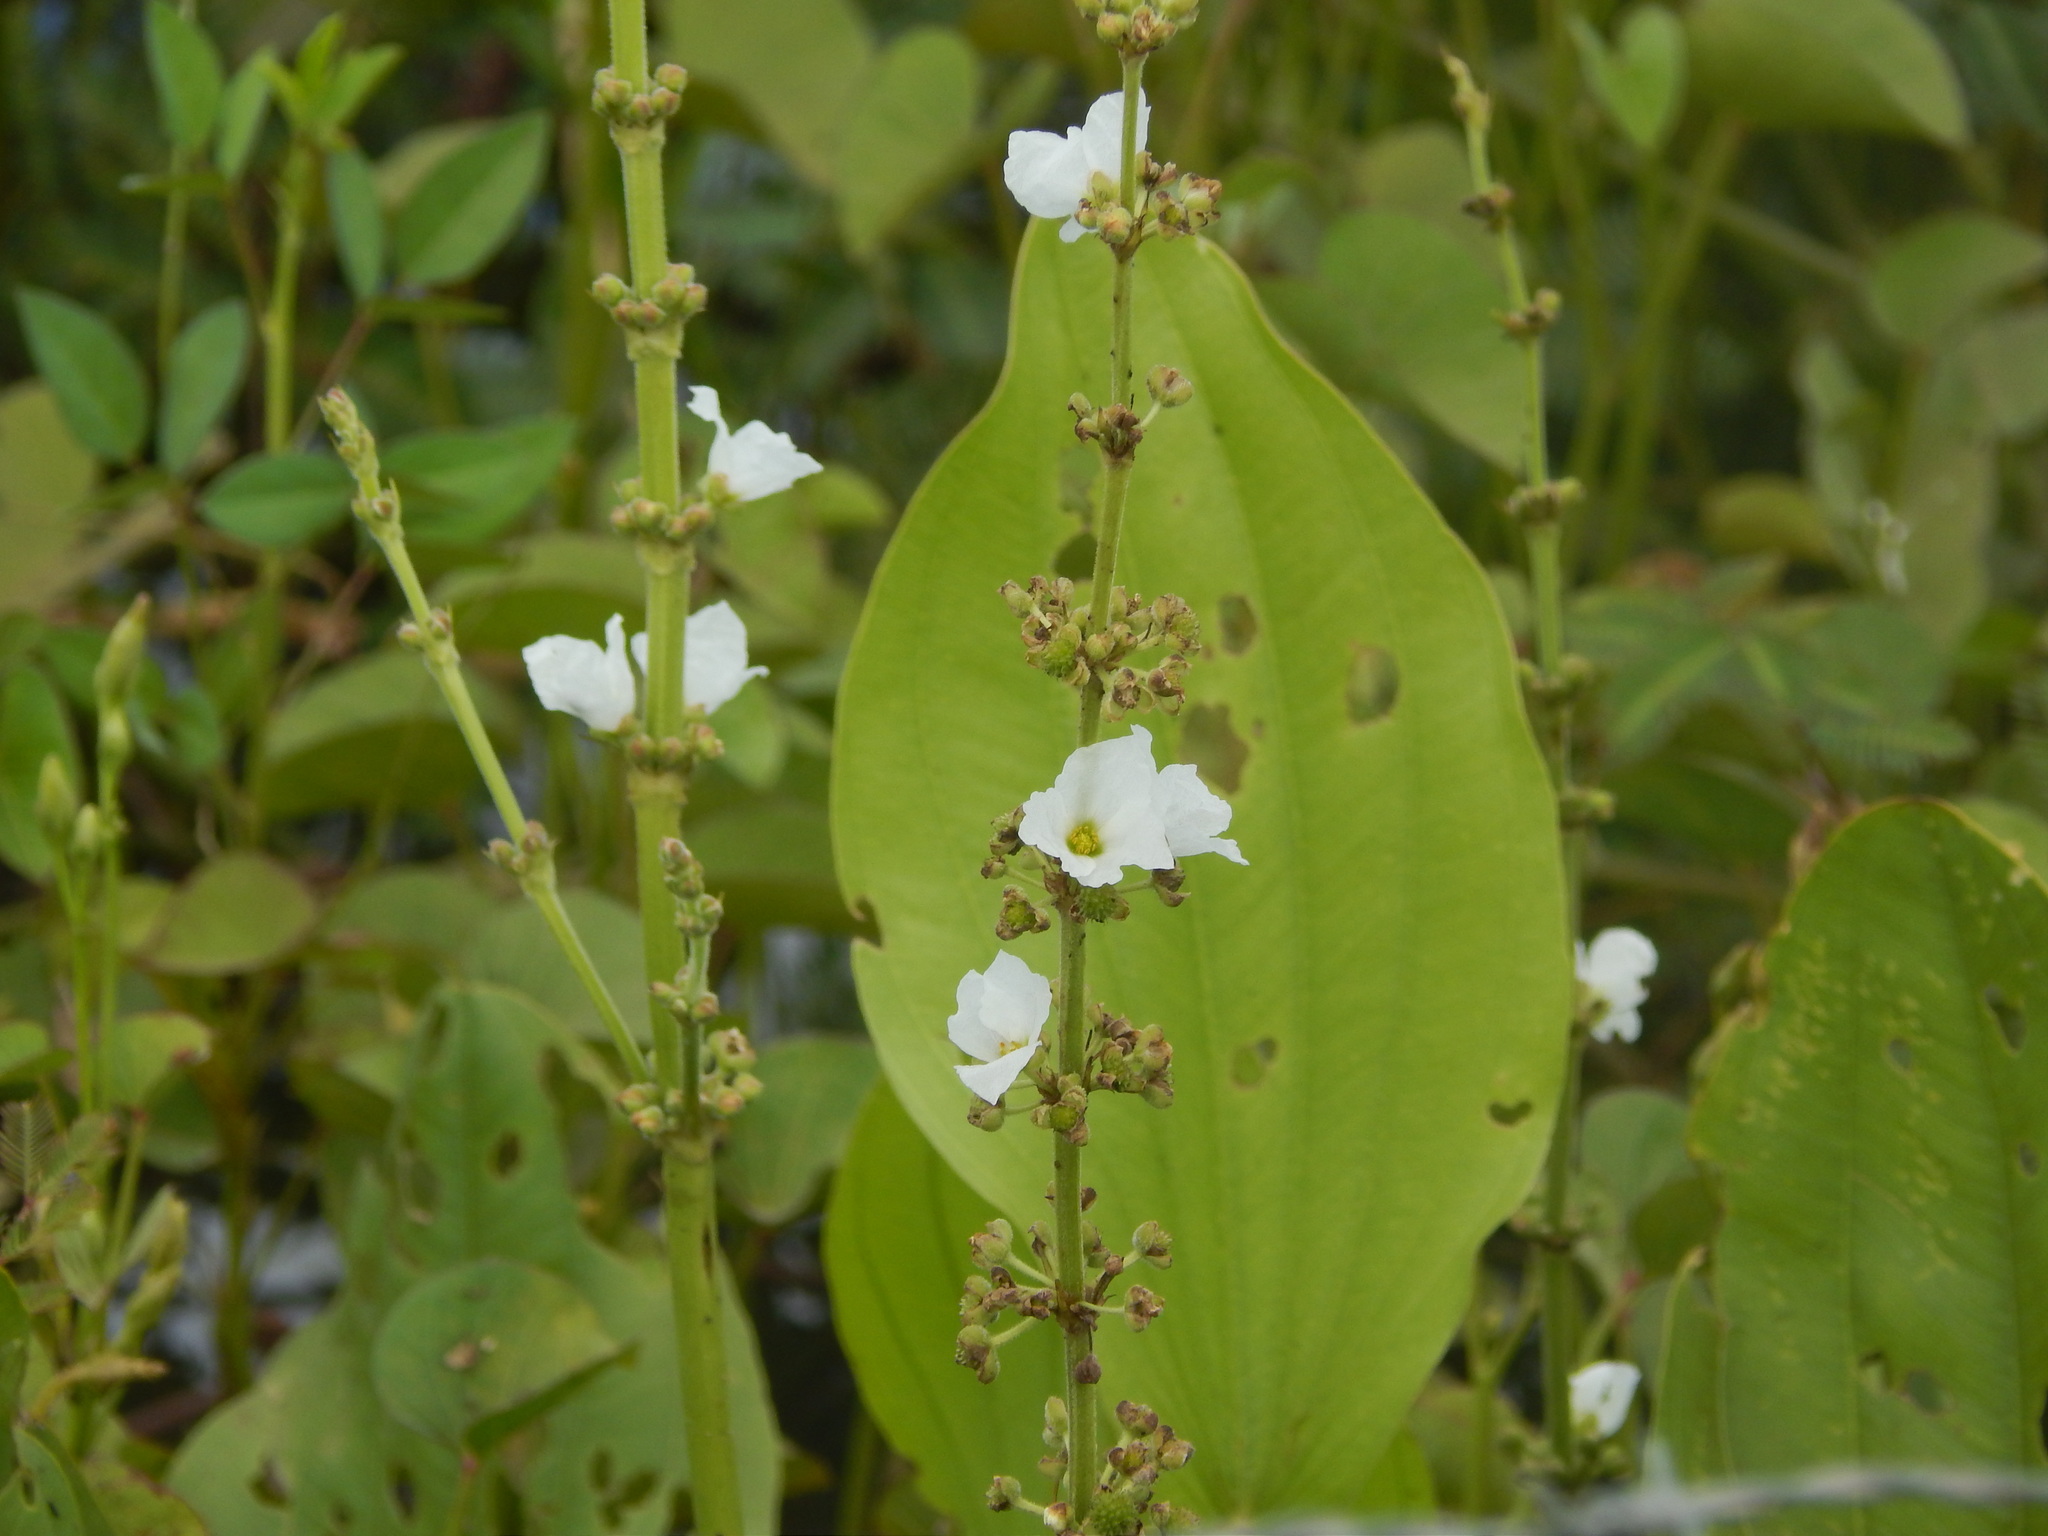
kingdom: Plantae
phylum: Tracheophyta
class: Liliopsida
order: Alismatales
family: Alismataceae
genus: Aquarius
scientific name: Aquarius pubescens
